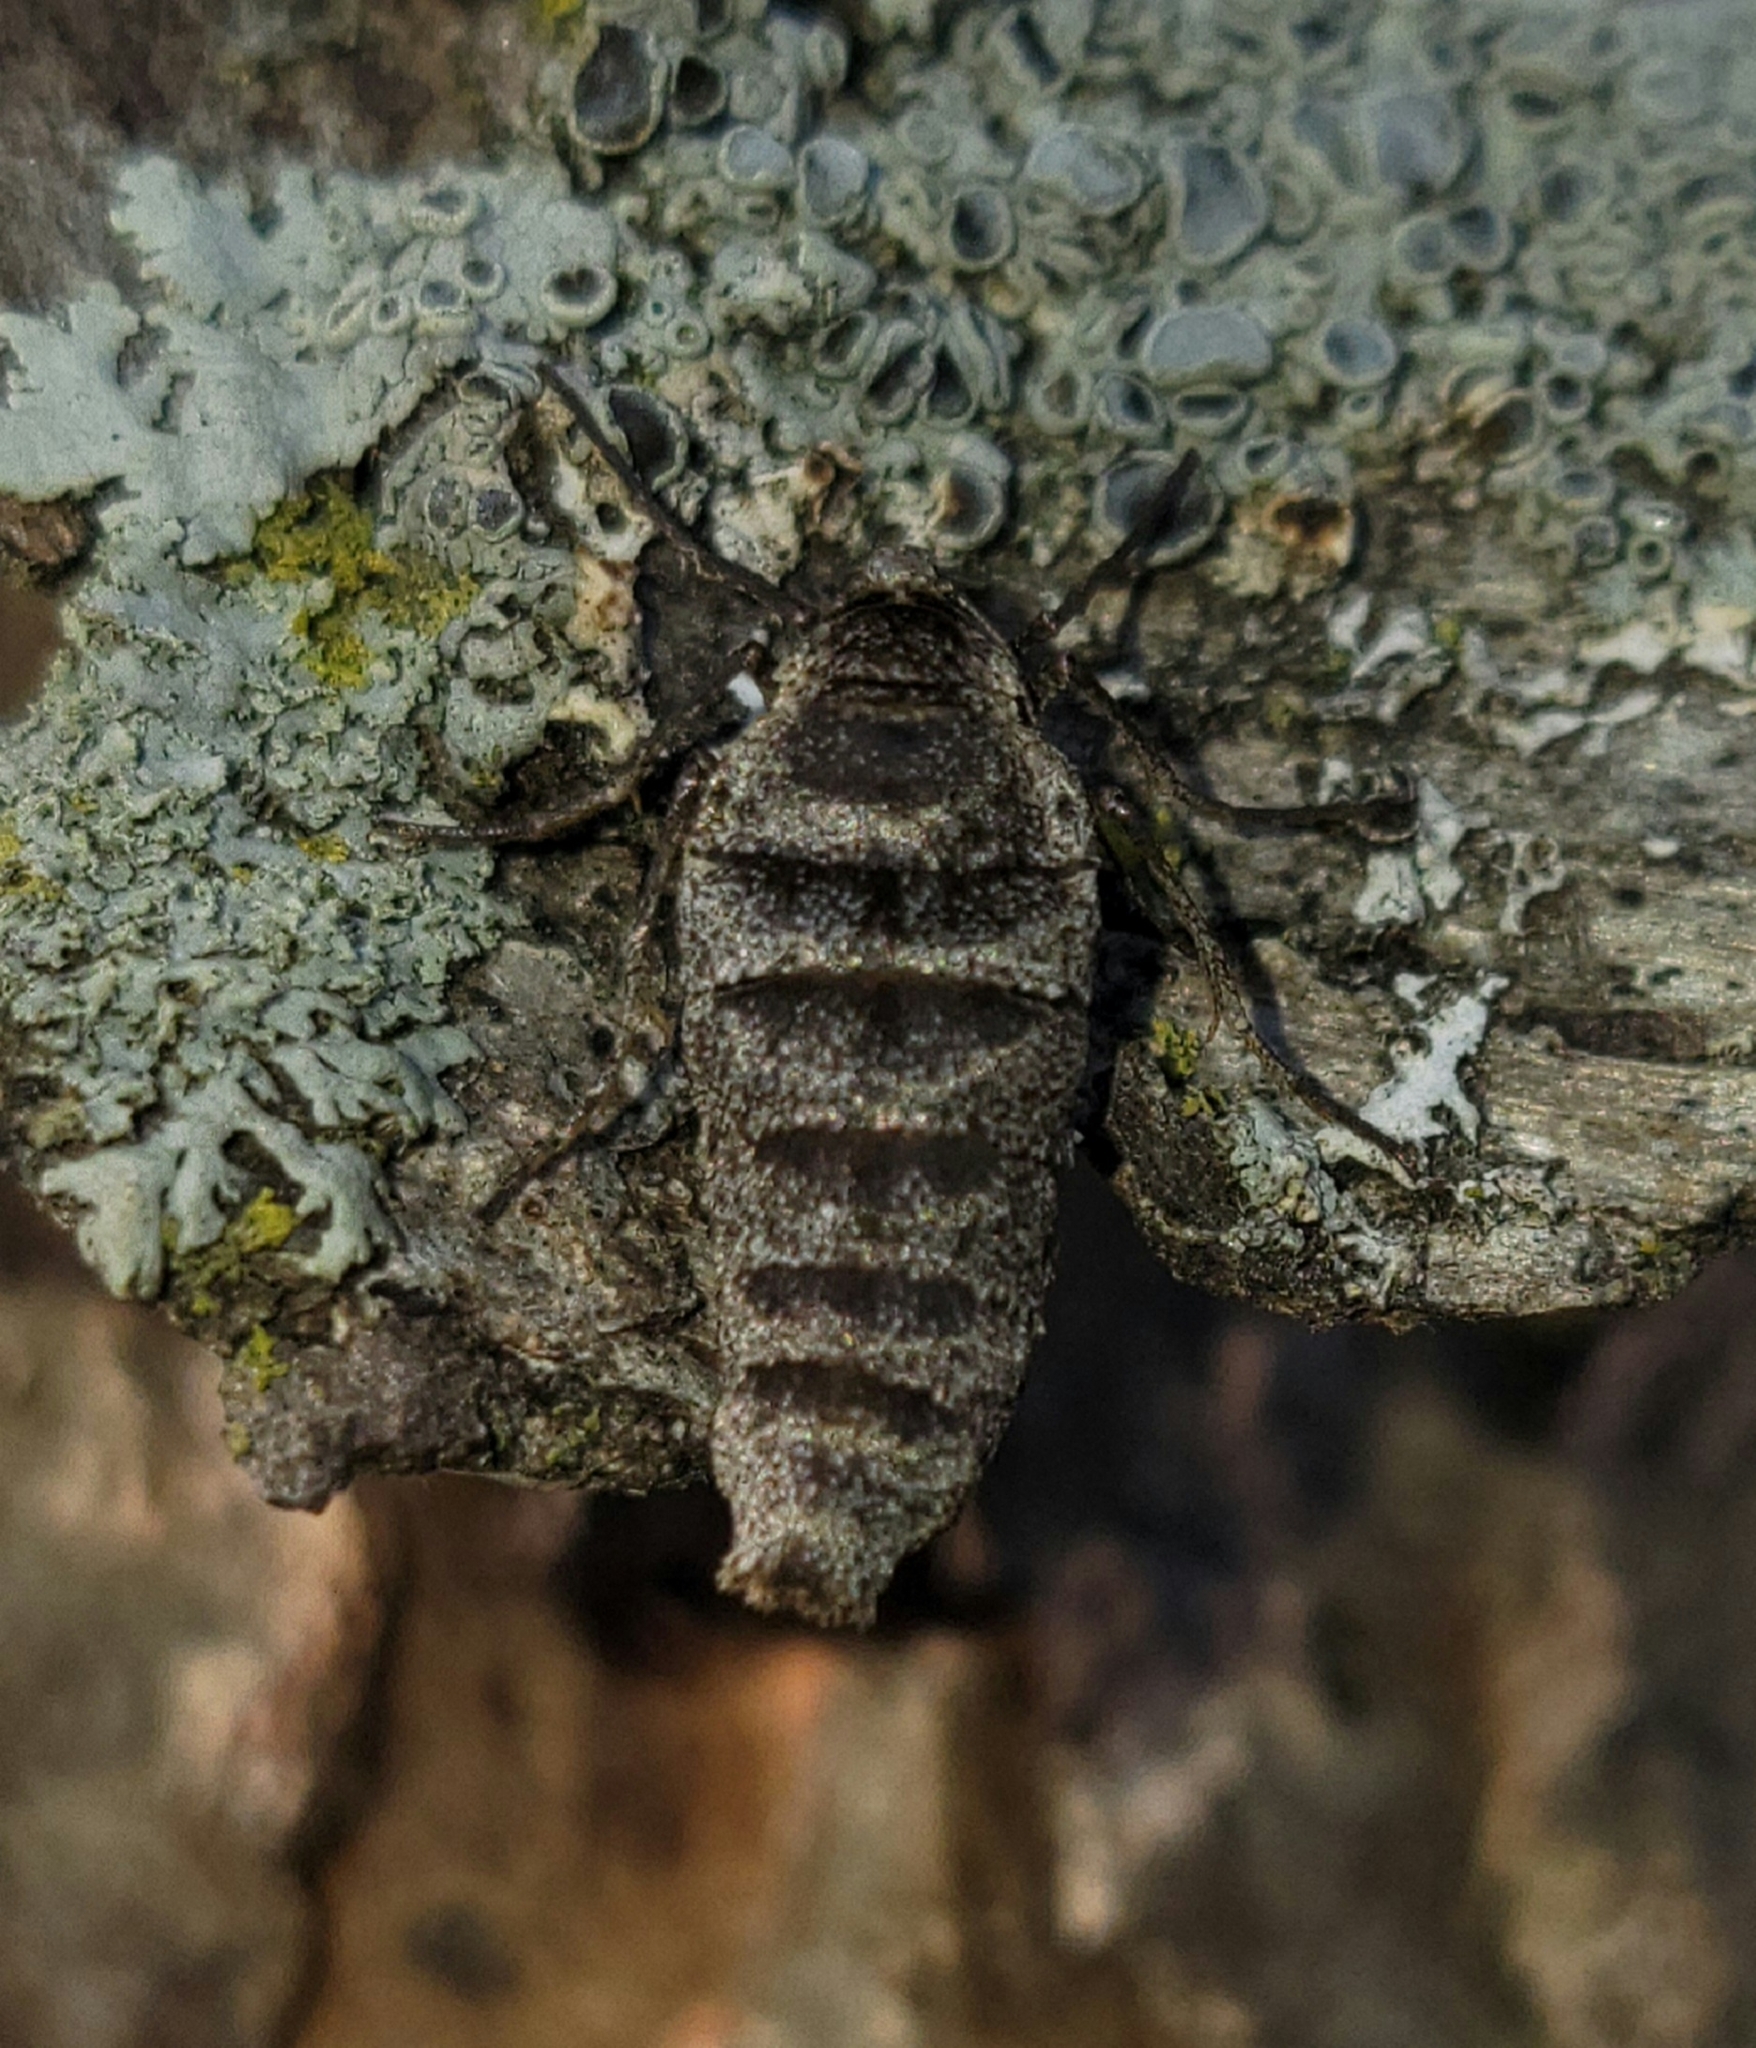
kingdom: Animalia
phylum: Arthropoda
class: Insecta
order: Lepidoptera
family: Geometridae
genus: Alsophila
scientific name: Alsophila pometaria
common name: Fall cankerworm
